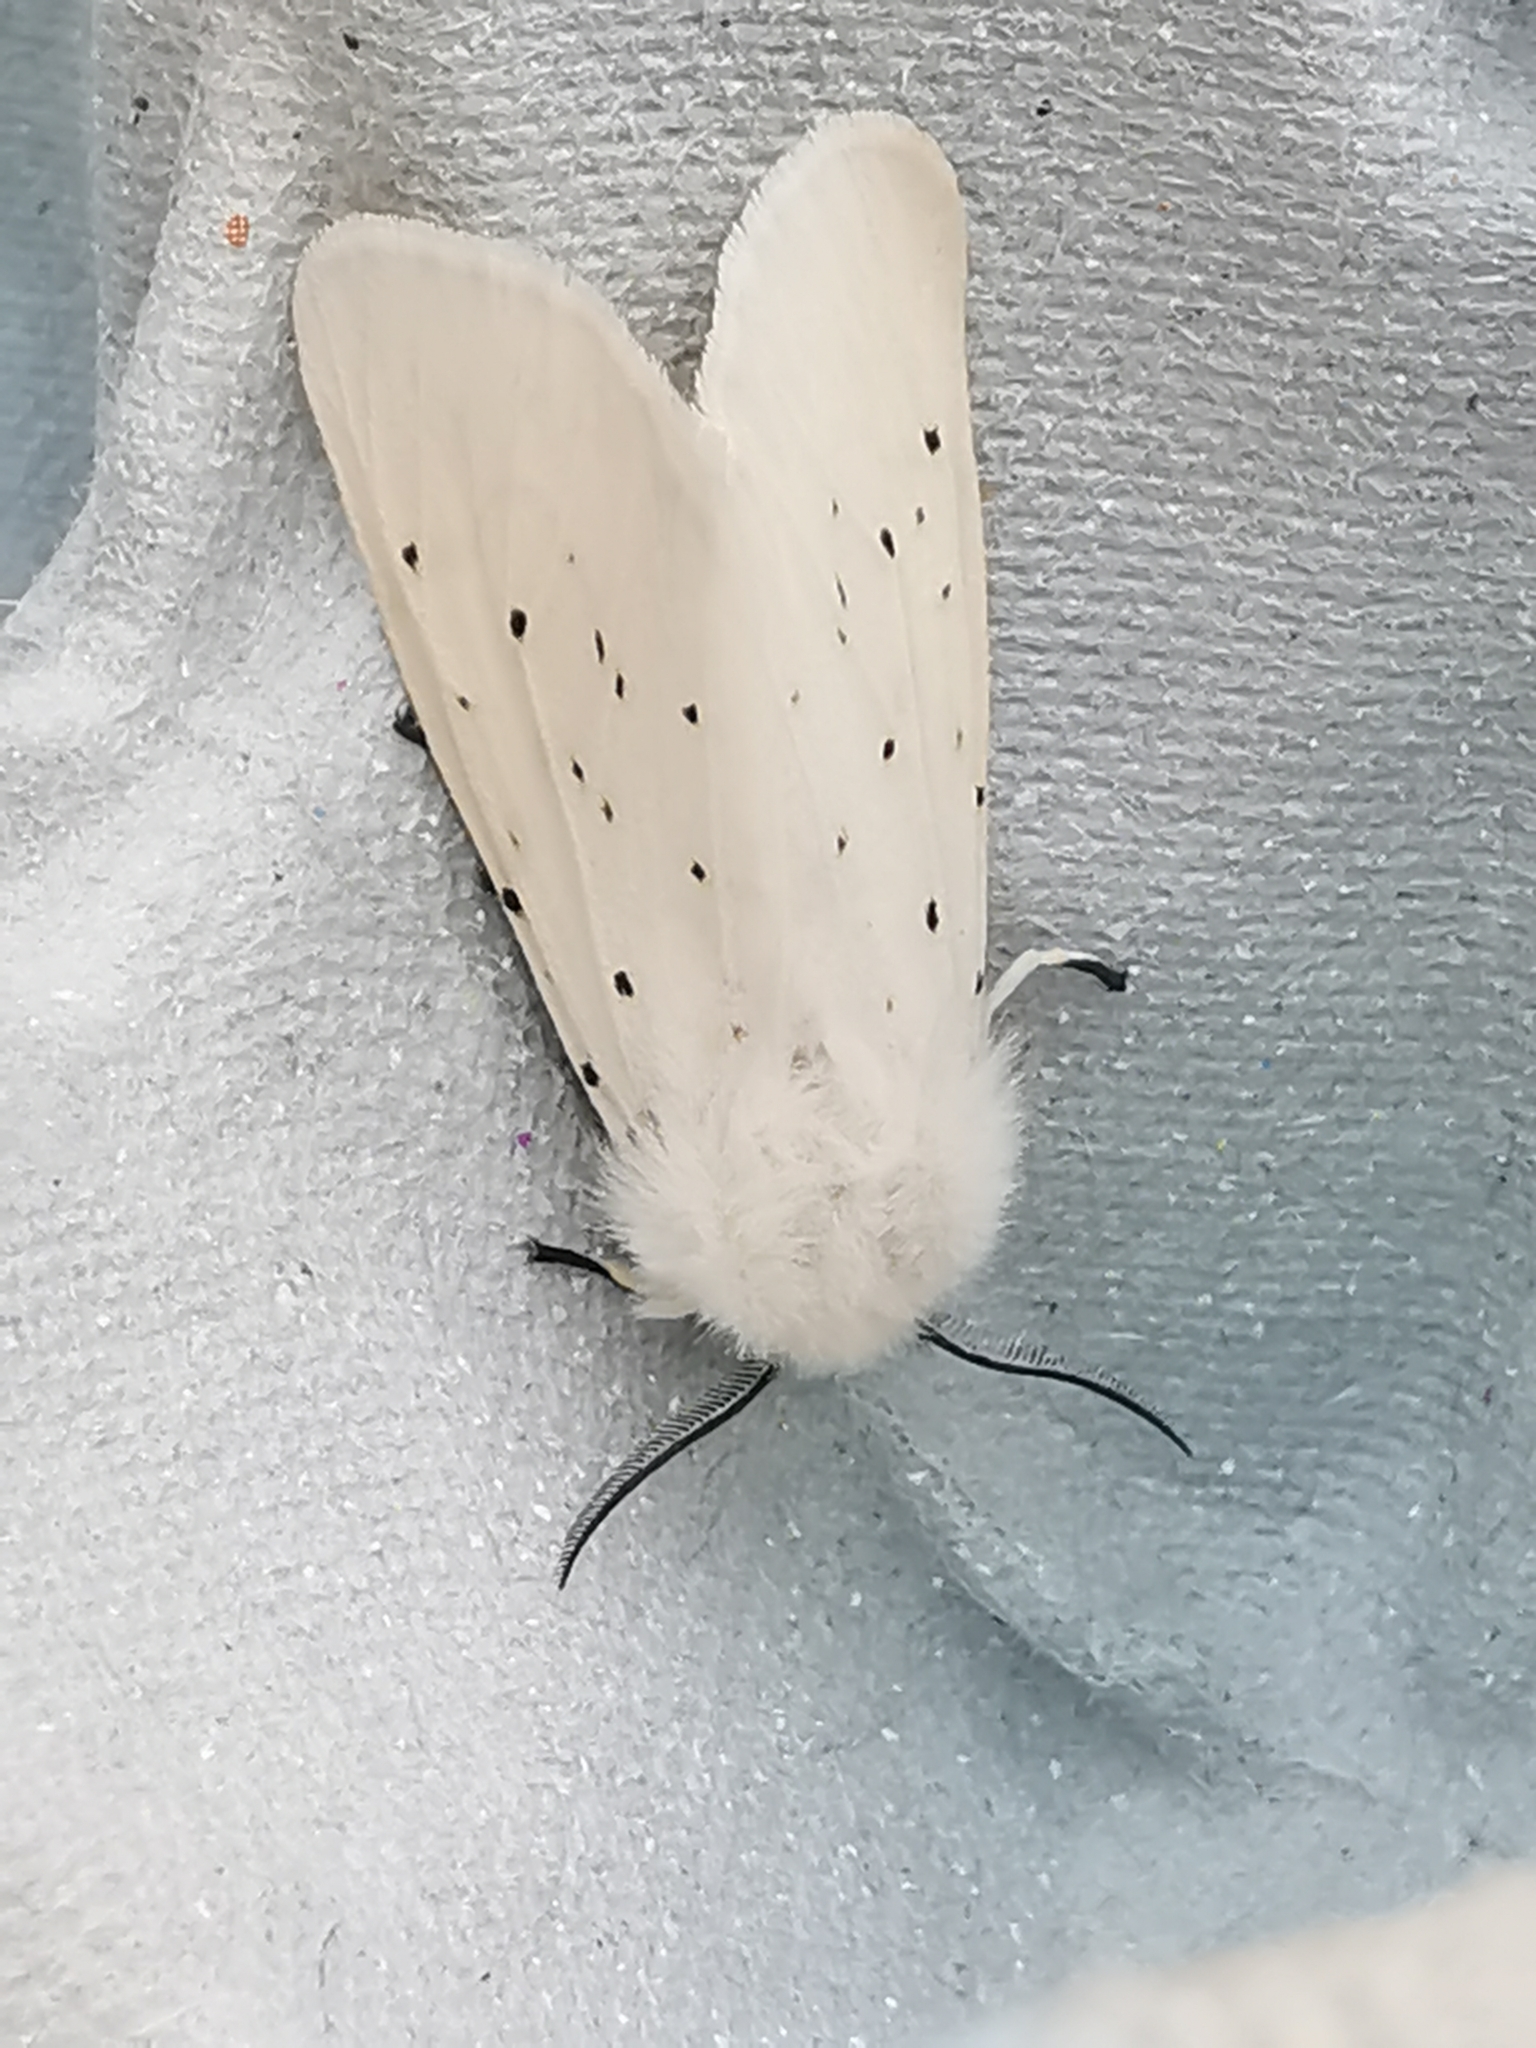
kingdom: Animalia
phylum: Arthropoda
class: Insecta
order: Lepidoptera
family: Erebidae
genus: Spilosoma
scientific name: Spilosoma lubricipeda
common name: White ermine
